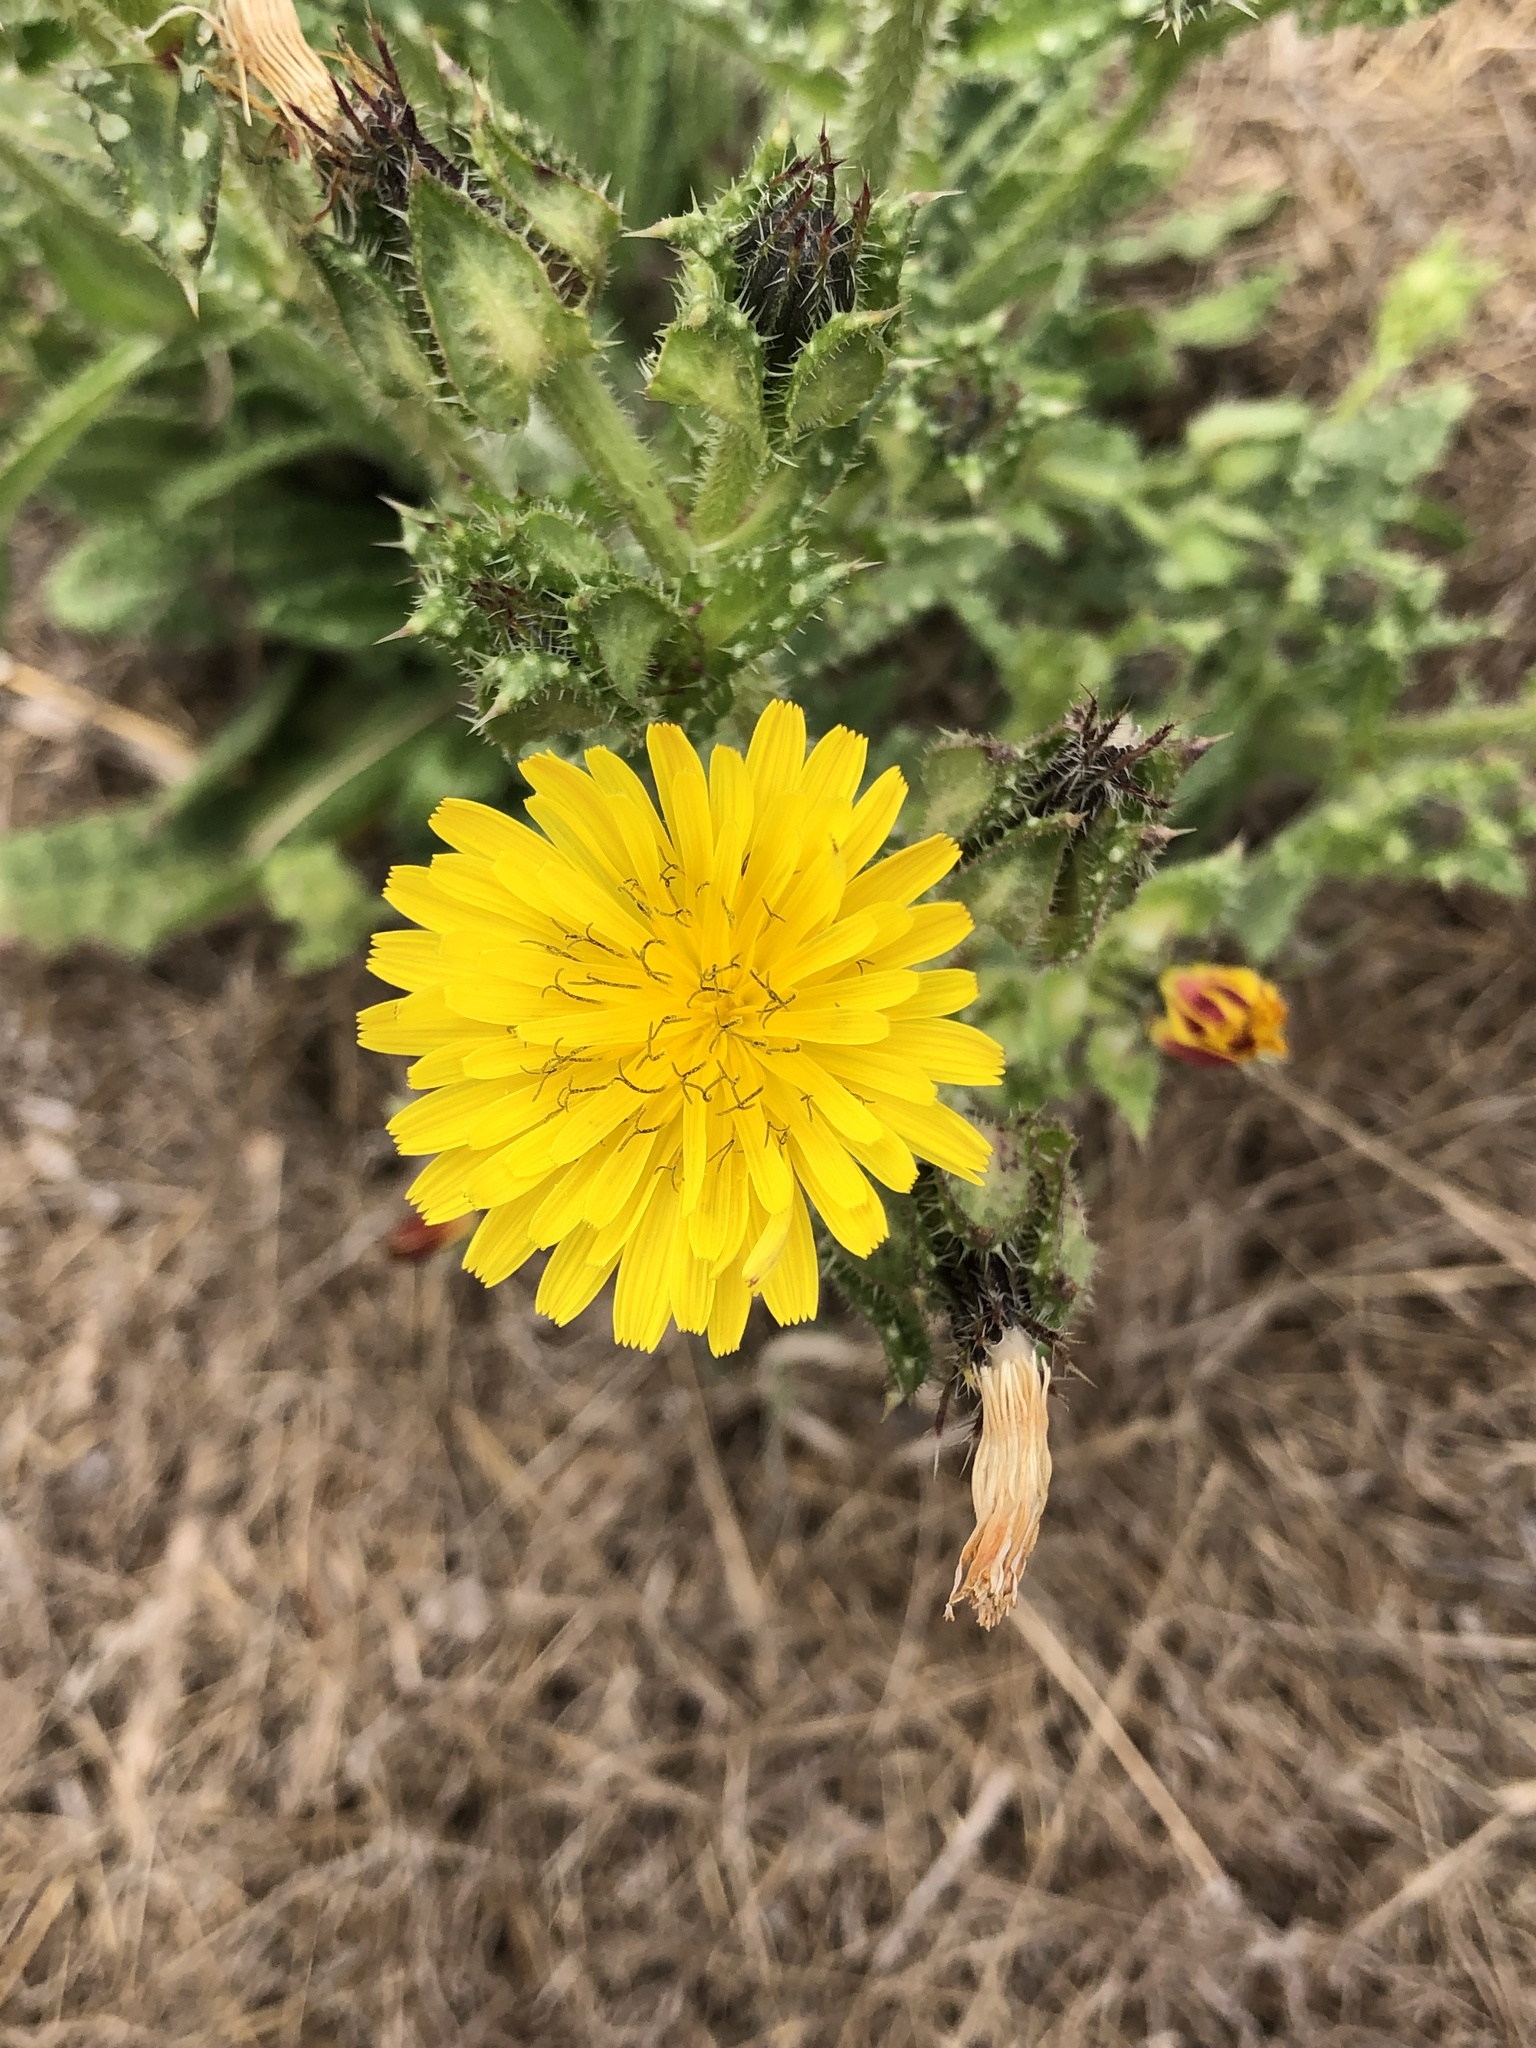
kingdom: Plantae
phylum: Tracheophyta
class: Magnoliopsida
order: Asterales
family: Asteraceae
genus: Helminthotheca
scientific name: Helminthotheca echioides
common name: Ox-tongue
